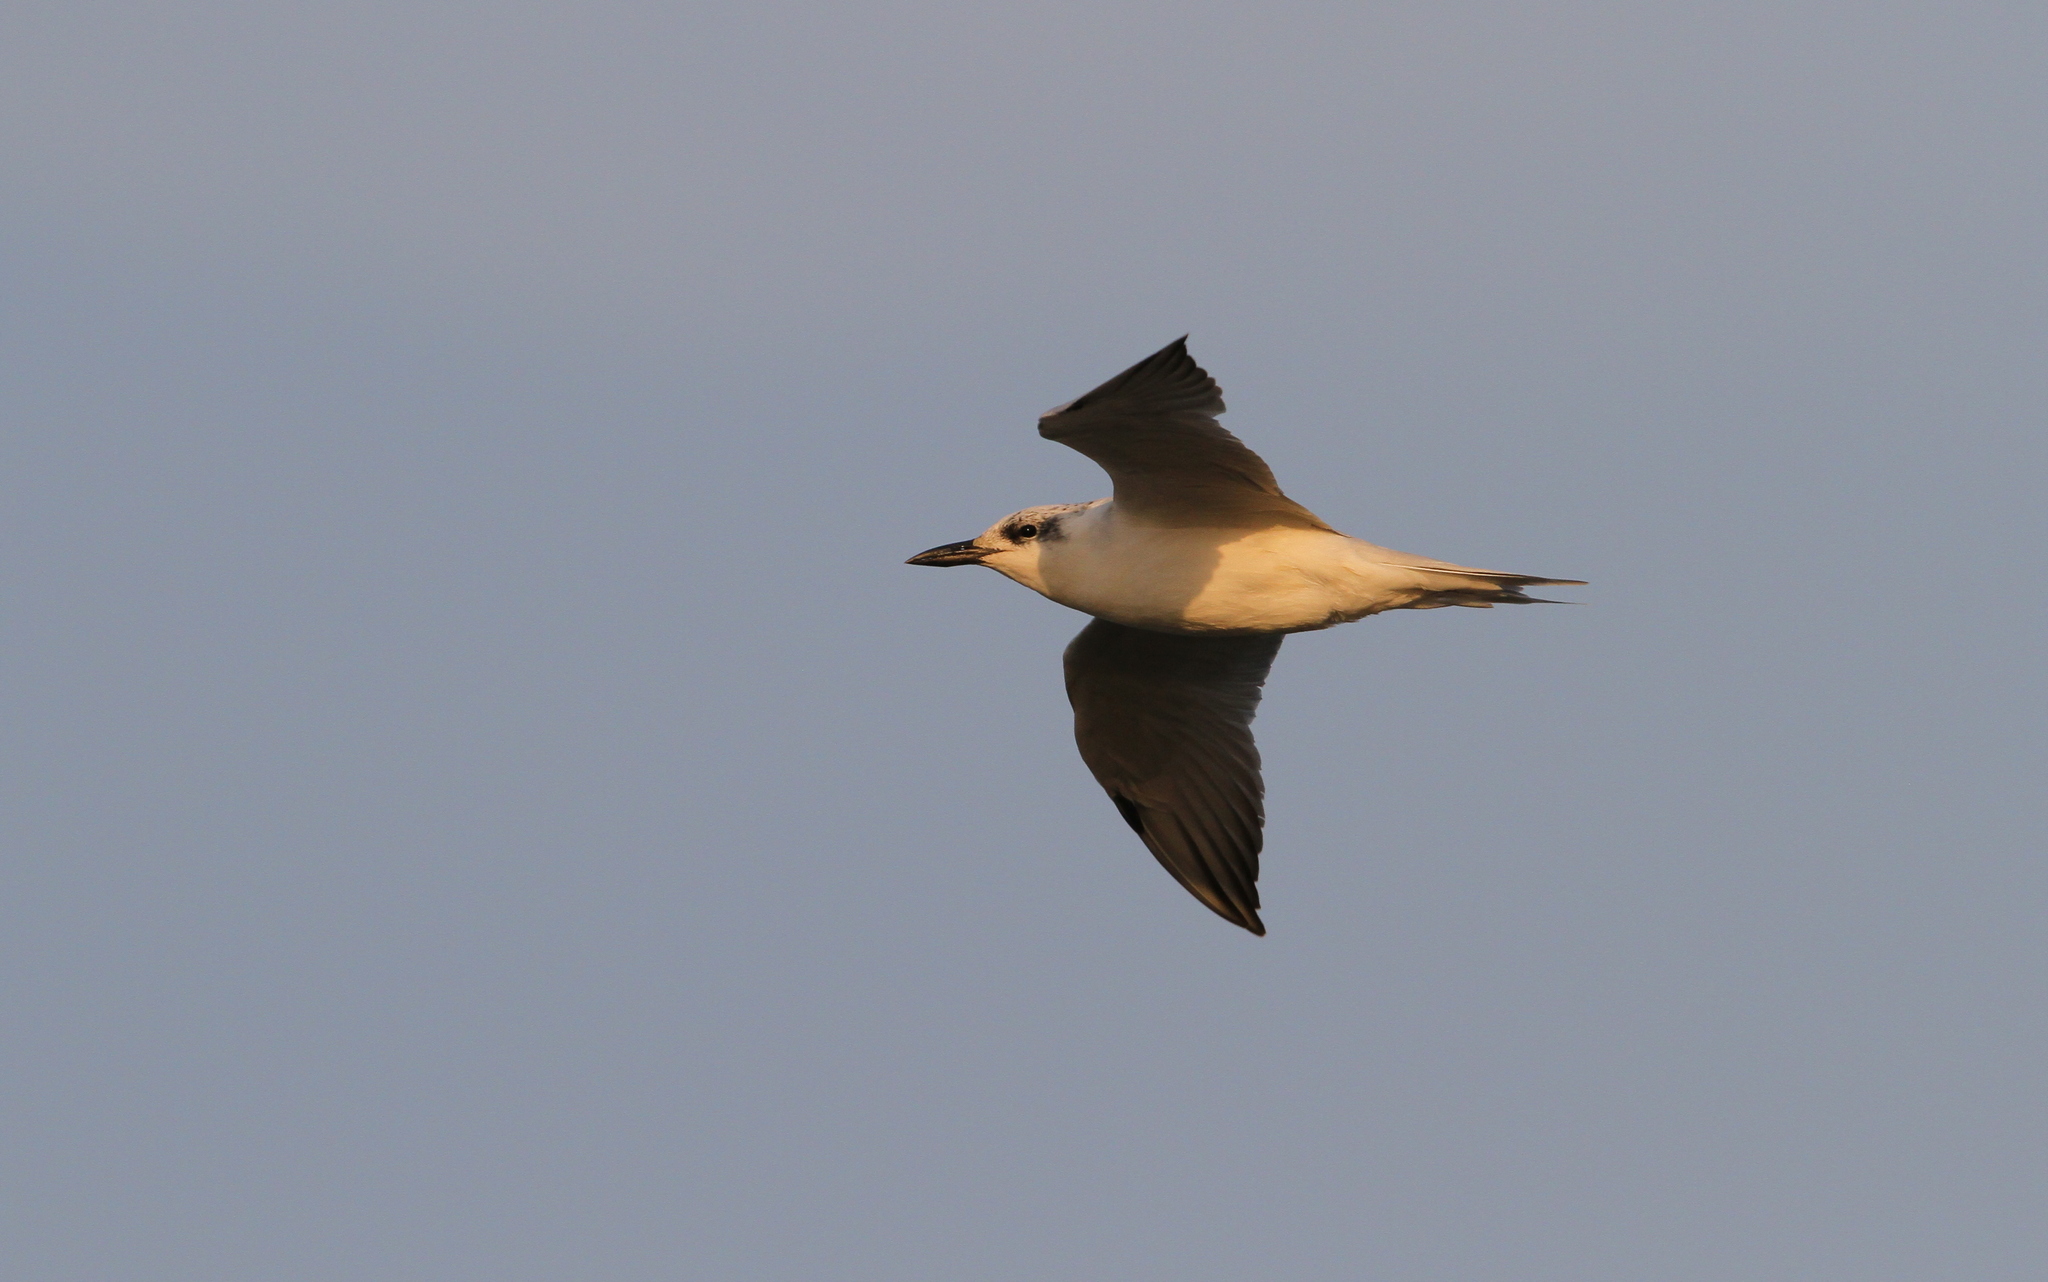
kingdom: Animalia
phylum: Chordata
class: Aves
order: Charadriiformes
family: Laridae
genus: Gelochelidon
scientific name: Gelochelidon nilotica
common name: Gull-billed tern
